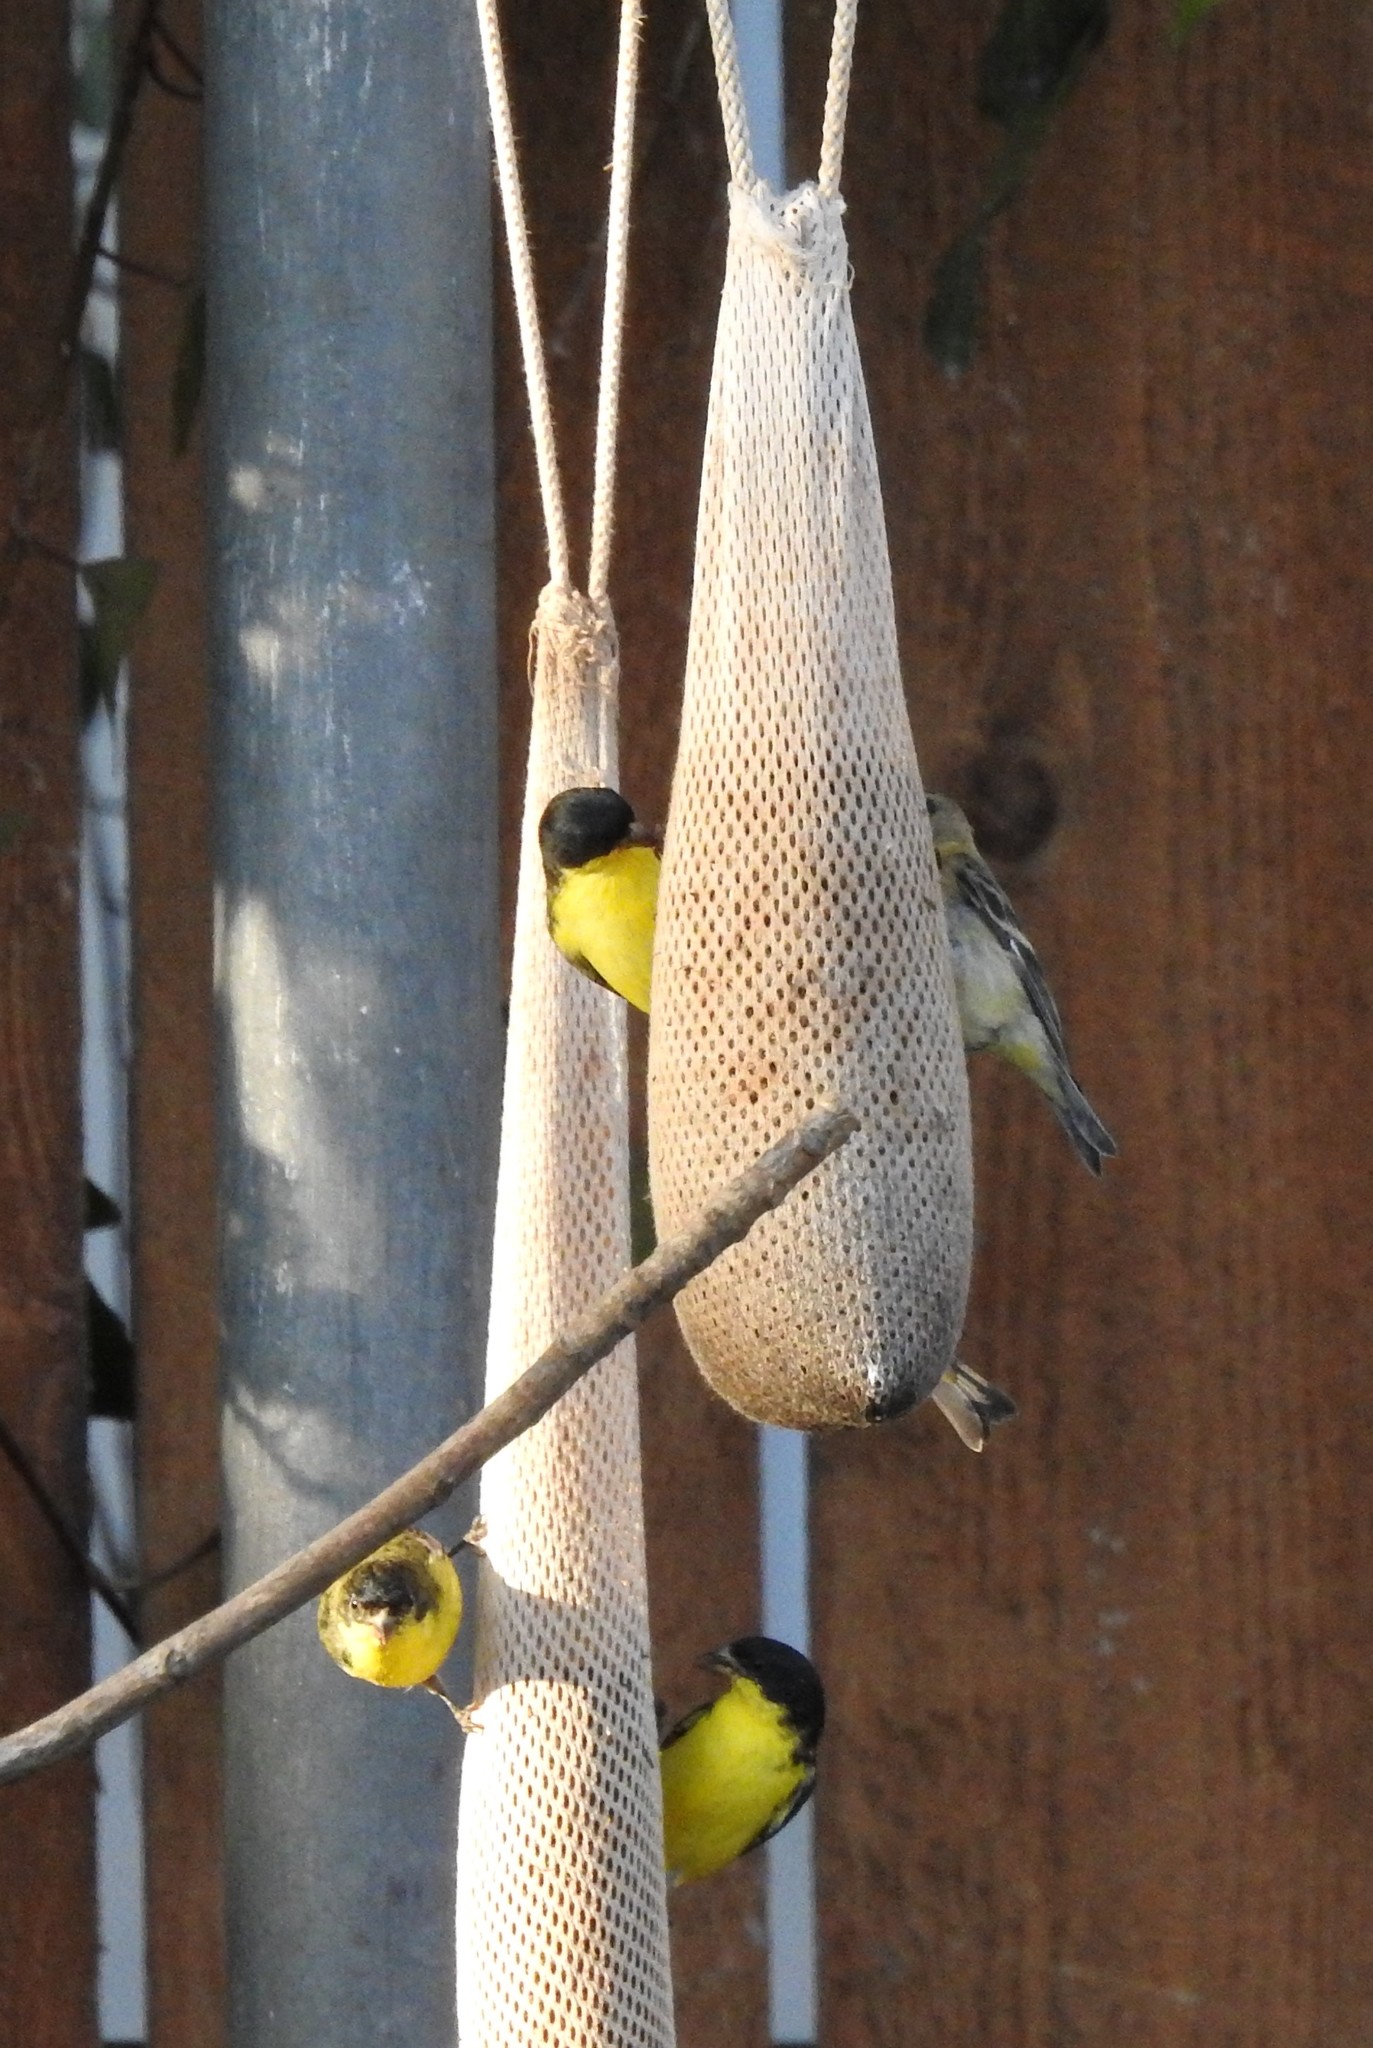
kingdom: Animalia
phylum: Chordata
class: Aves
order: Passeriformes
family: Fringillidae
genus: Spinus
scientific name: Spinus psaltria
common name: Lesser goldfinch
